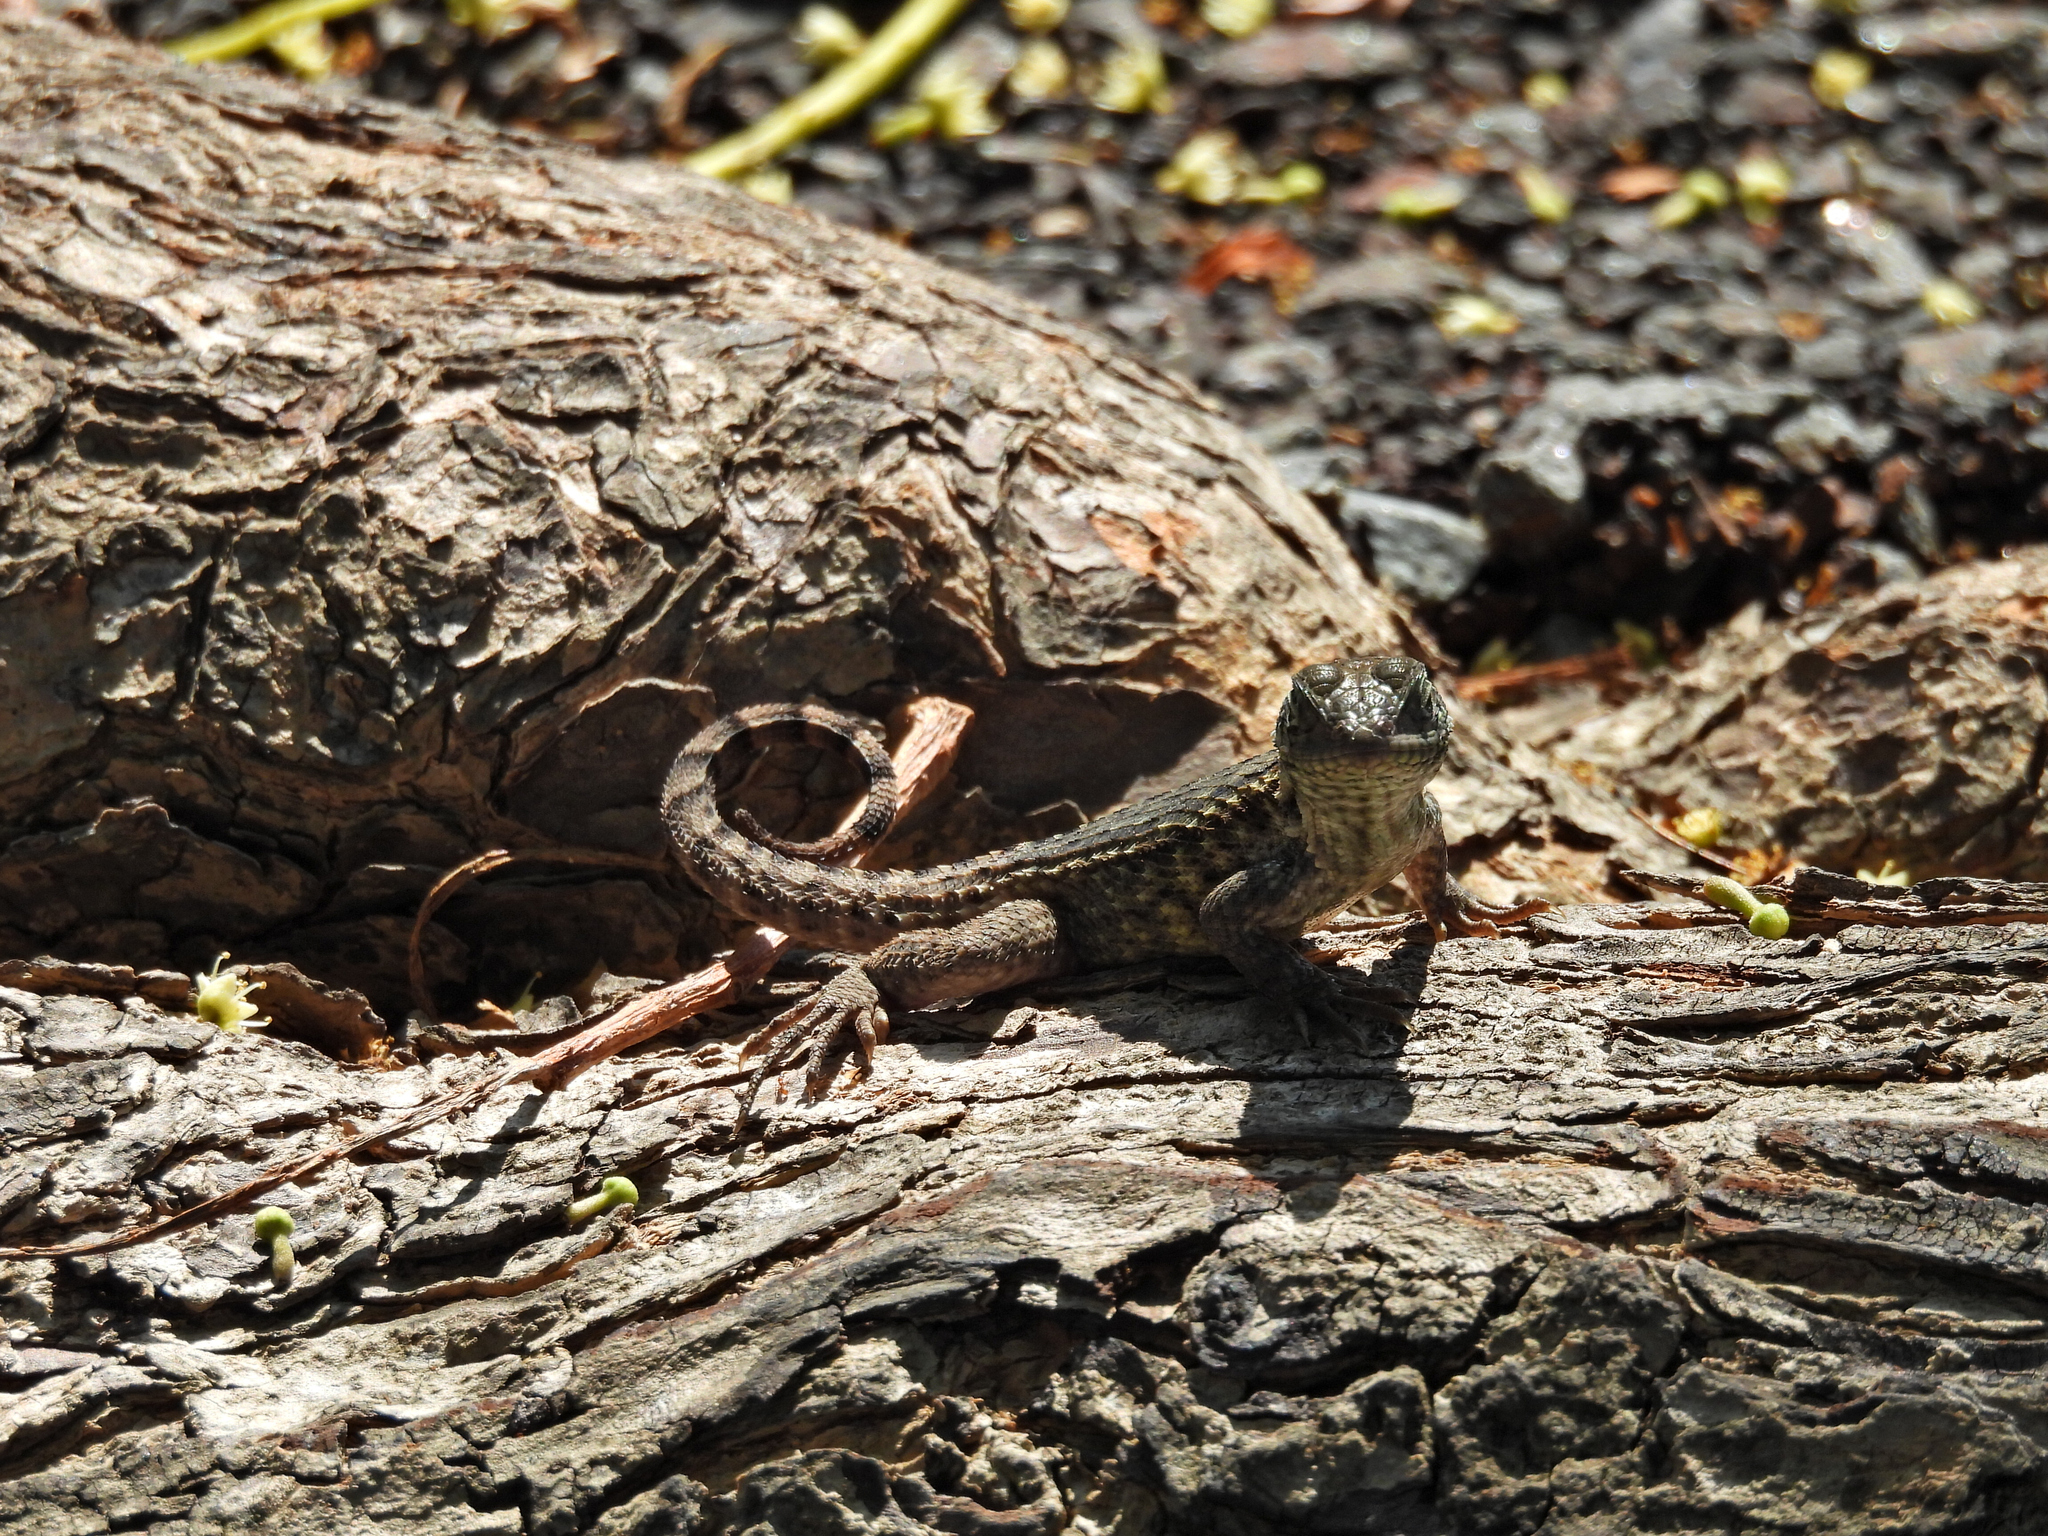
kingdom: Animalia
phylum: Chordata
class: Squamata
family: Leiocephalidae
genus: Leiocephalus
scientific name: Leiocephalus carinatus
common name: Northern curly-tailed lizard
